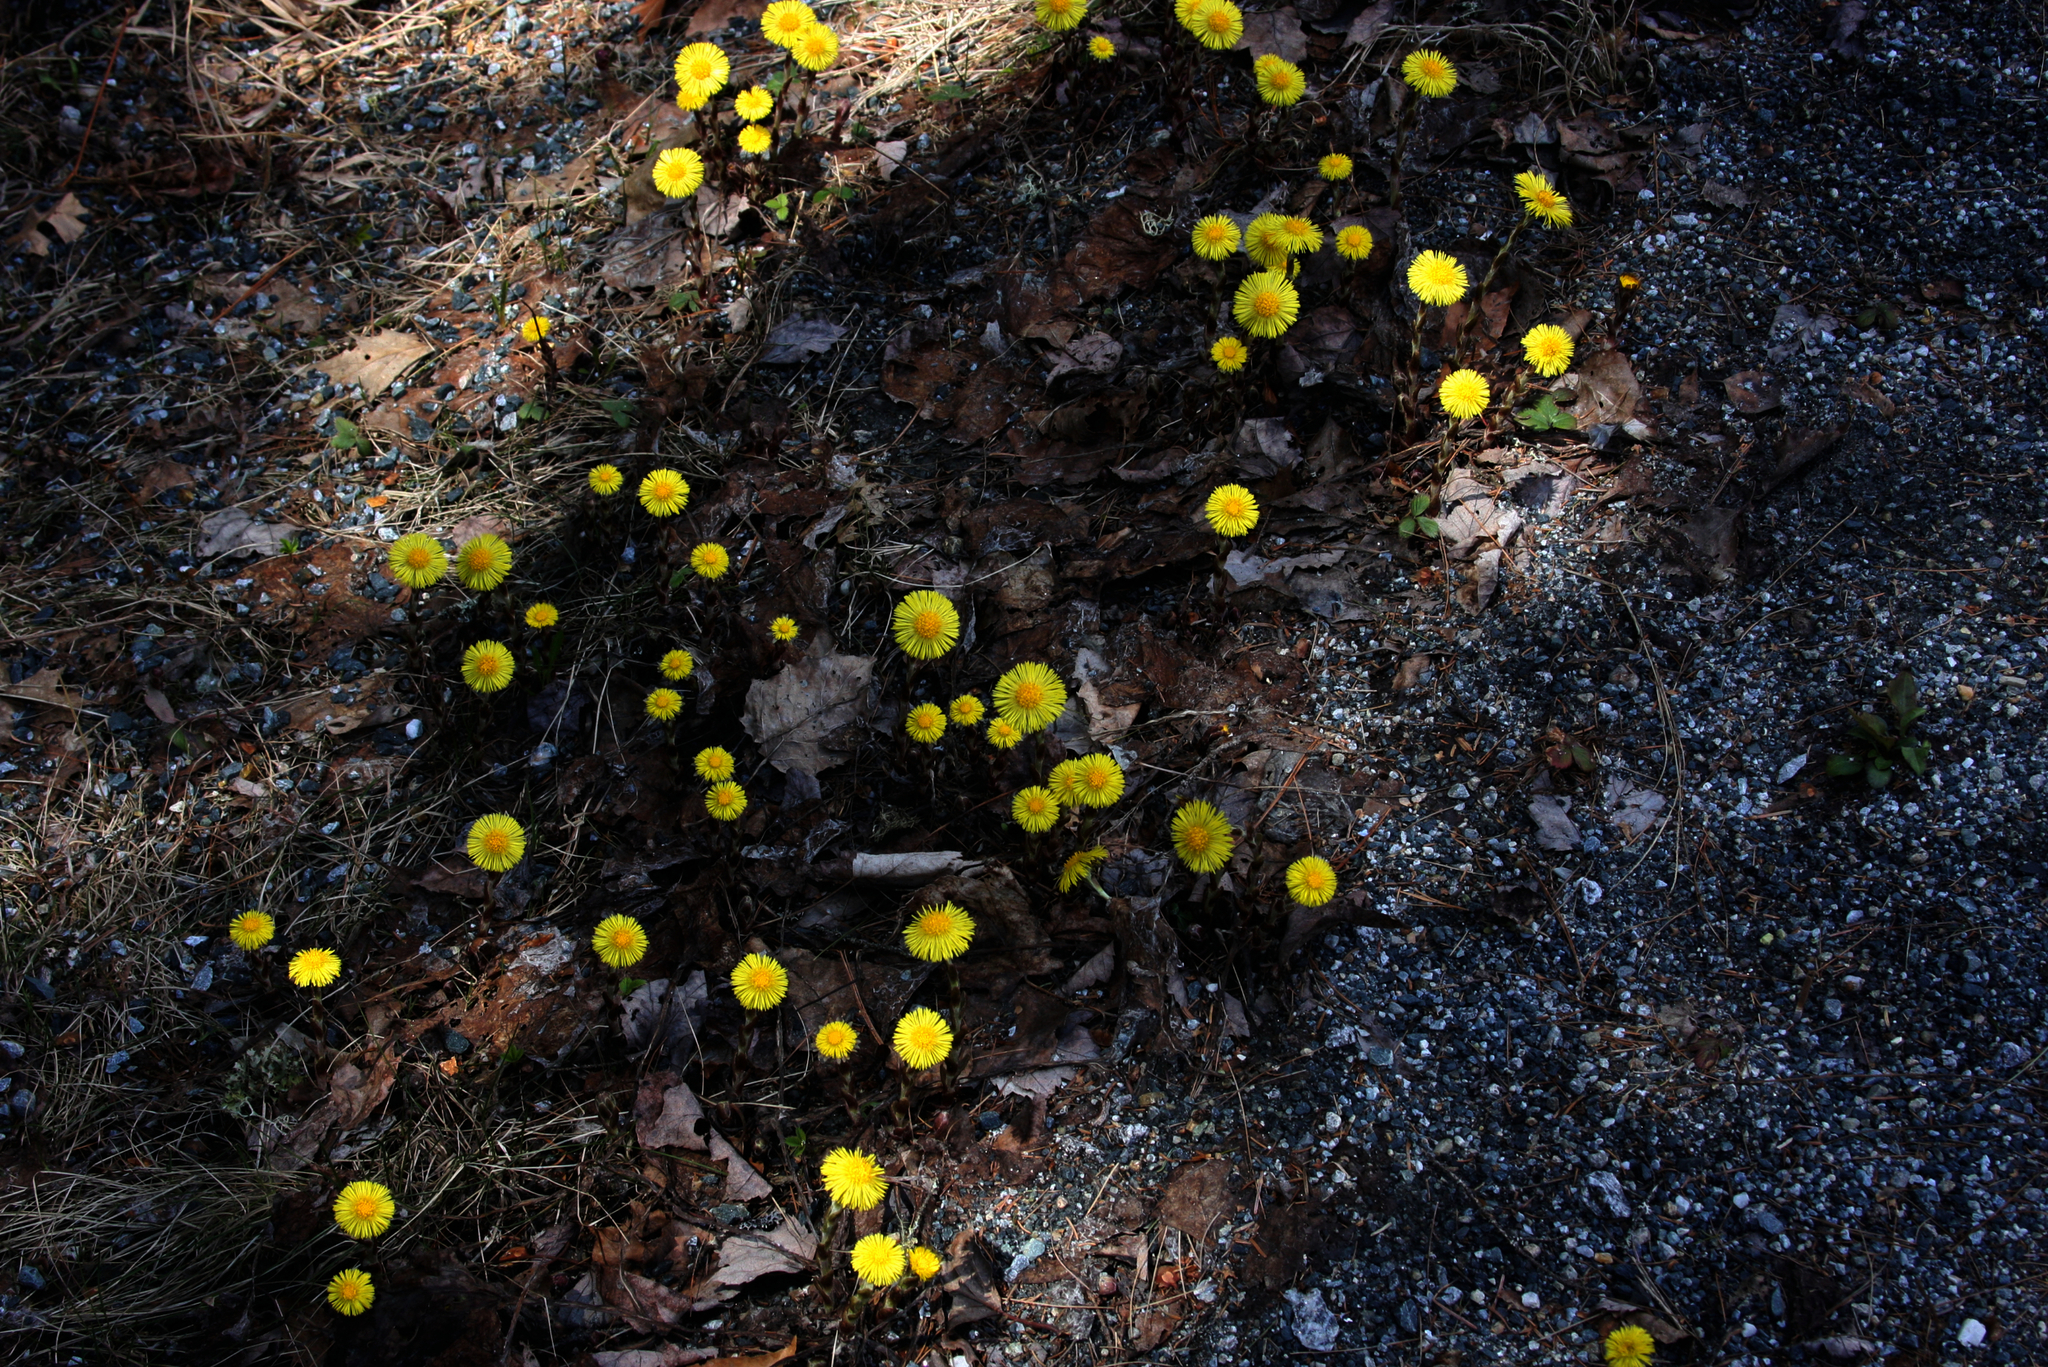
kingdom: Plantae
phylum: Tracheophyta
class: Magnoliopsida
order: Asterales
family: Asteraceae
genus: Tussilago
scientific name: Tussilago farfara
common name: Coltsfoot
